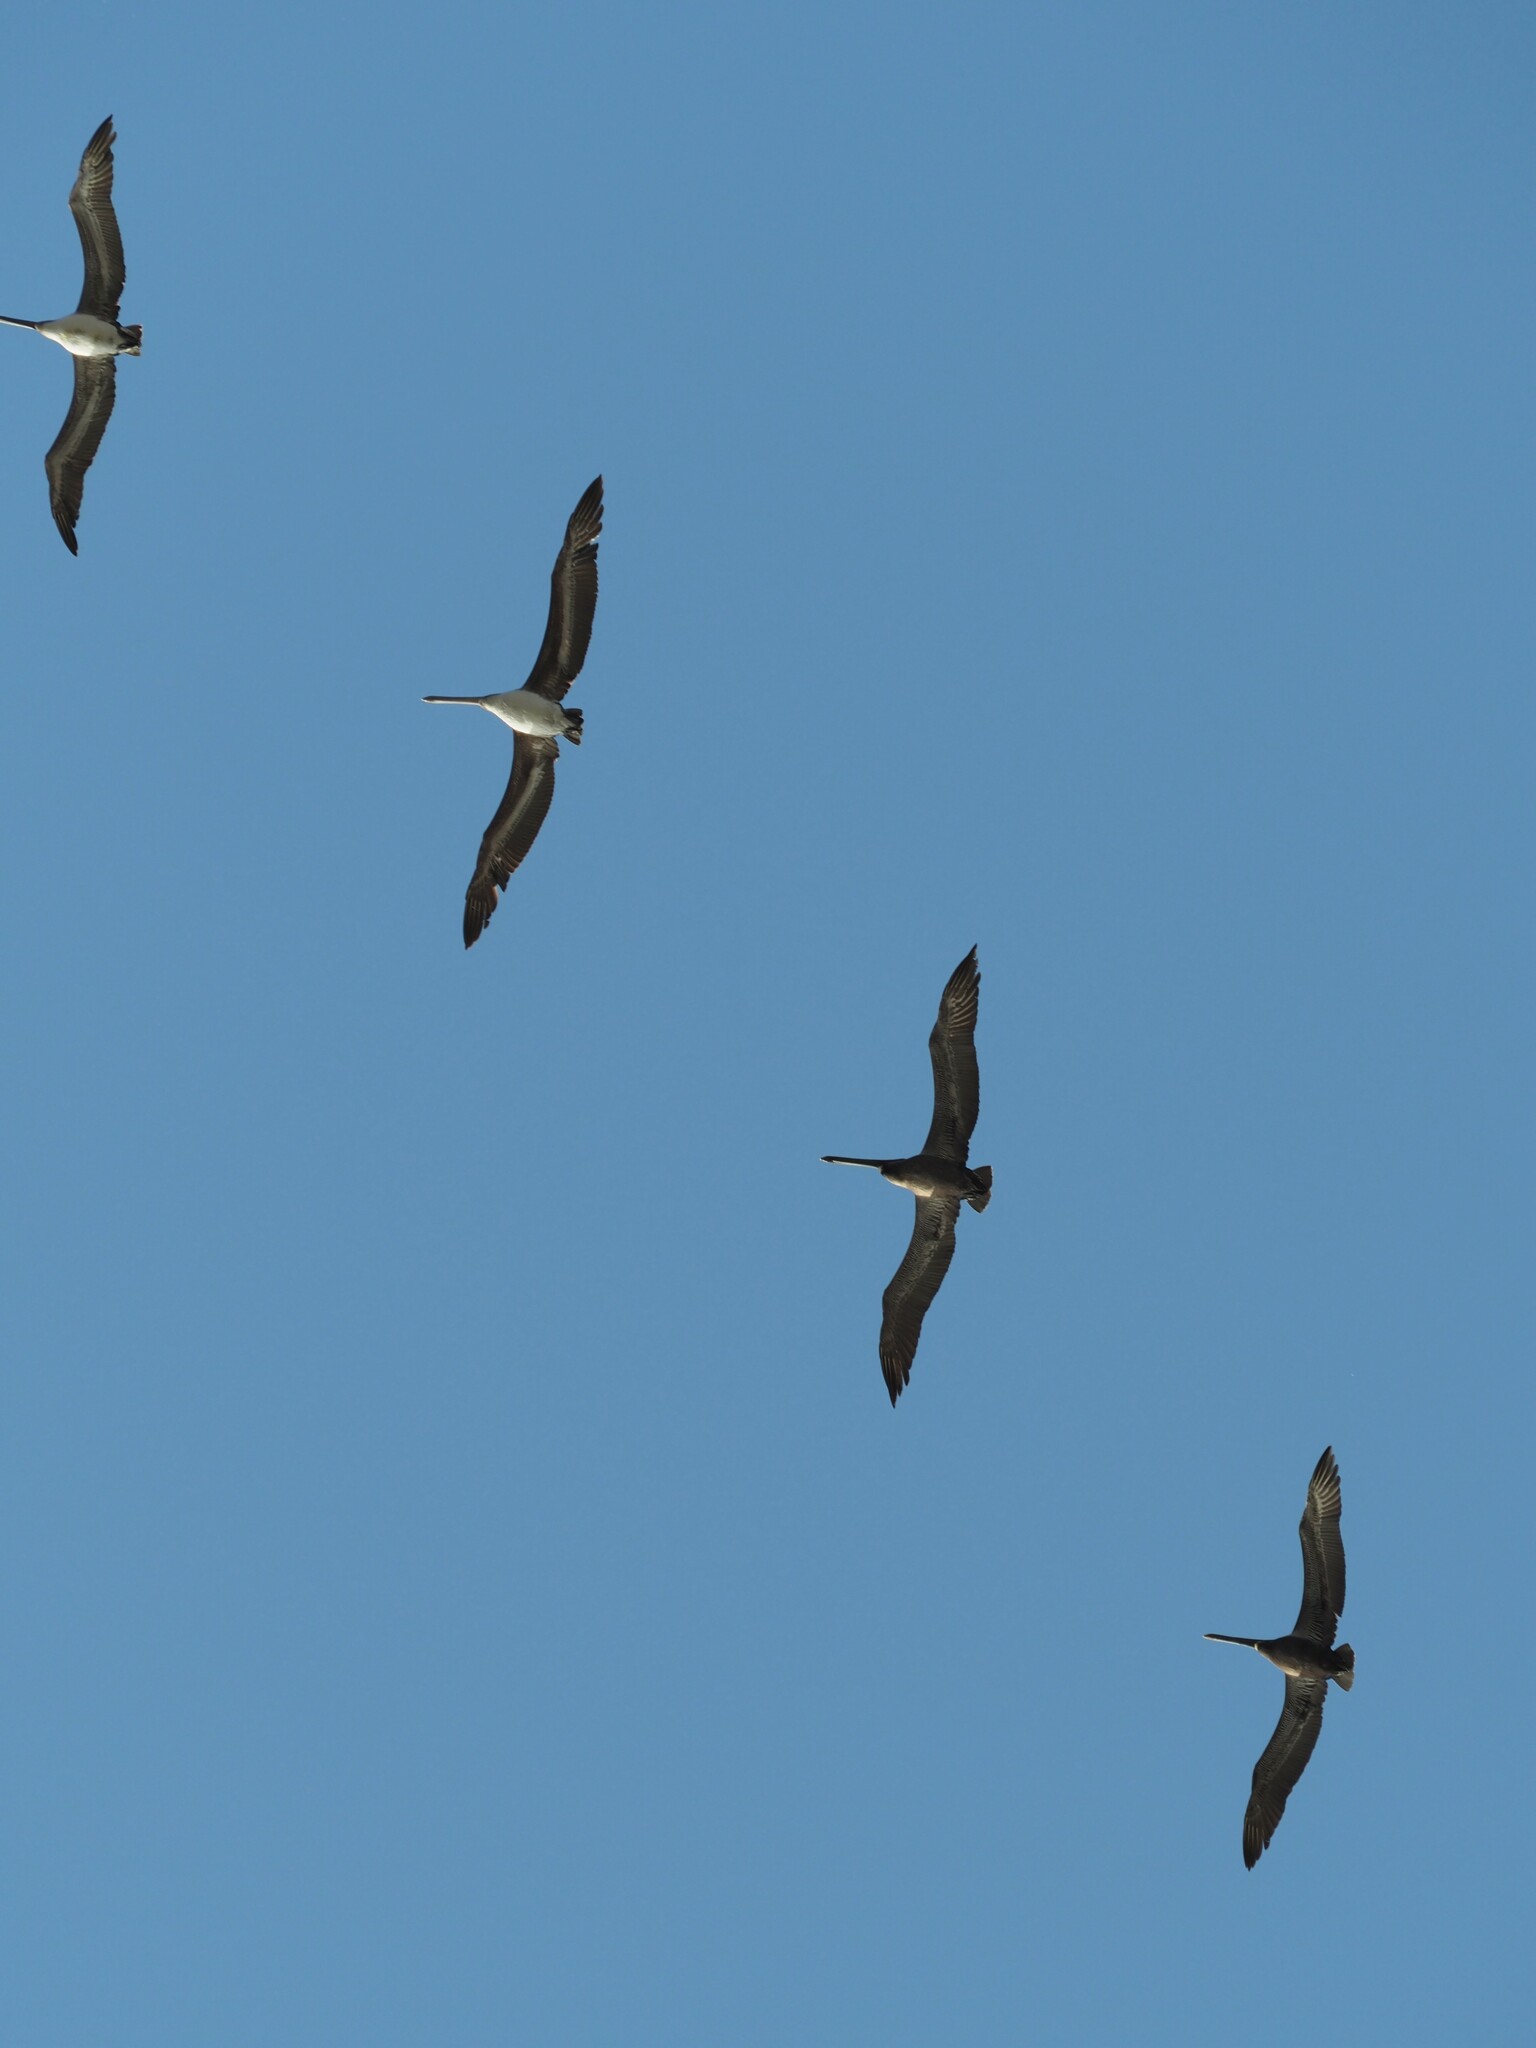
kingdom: Animalia
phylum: Chordata
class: Aves
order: Pelecaniformes
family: Pelecanidae
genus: Pelecanus
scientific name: Pelecanus occidentalis
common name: Brown pelican
